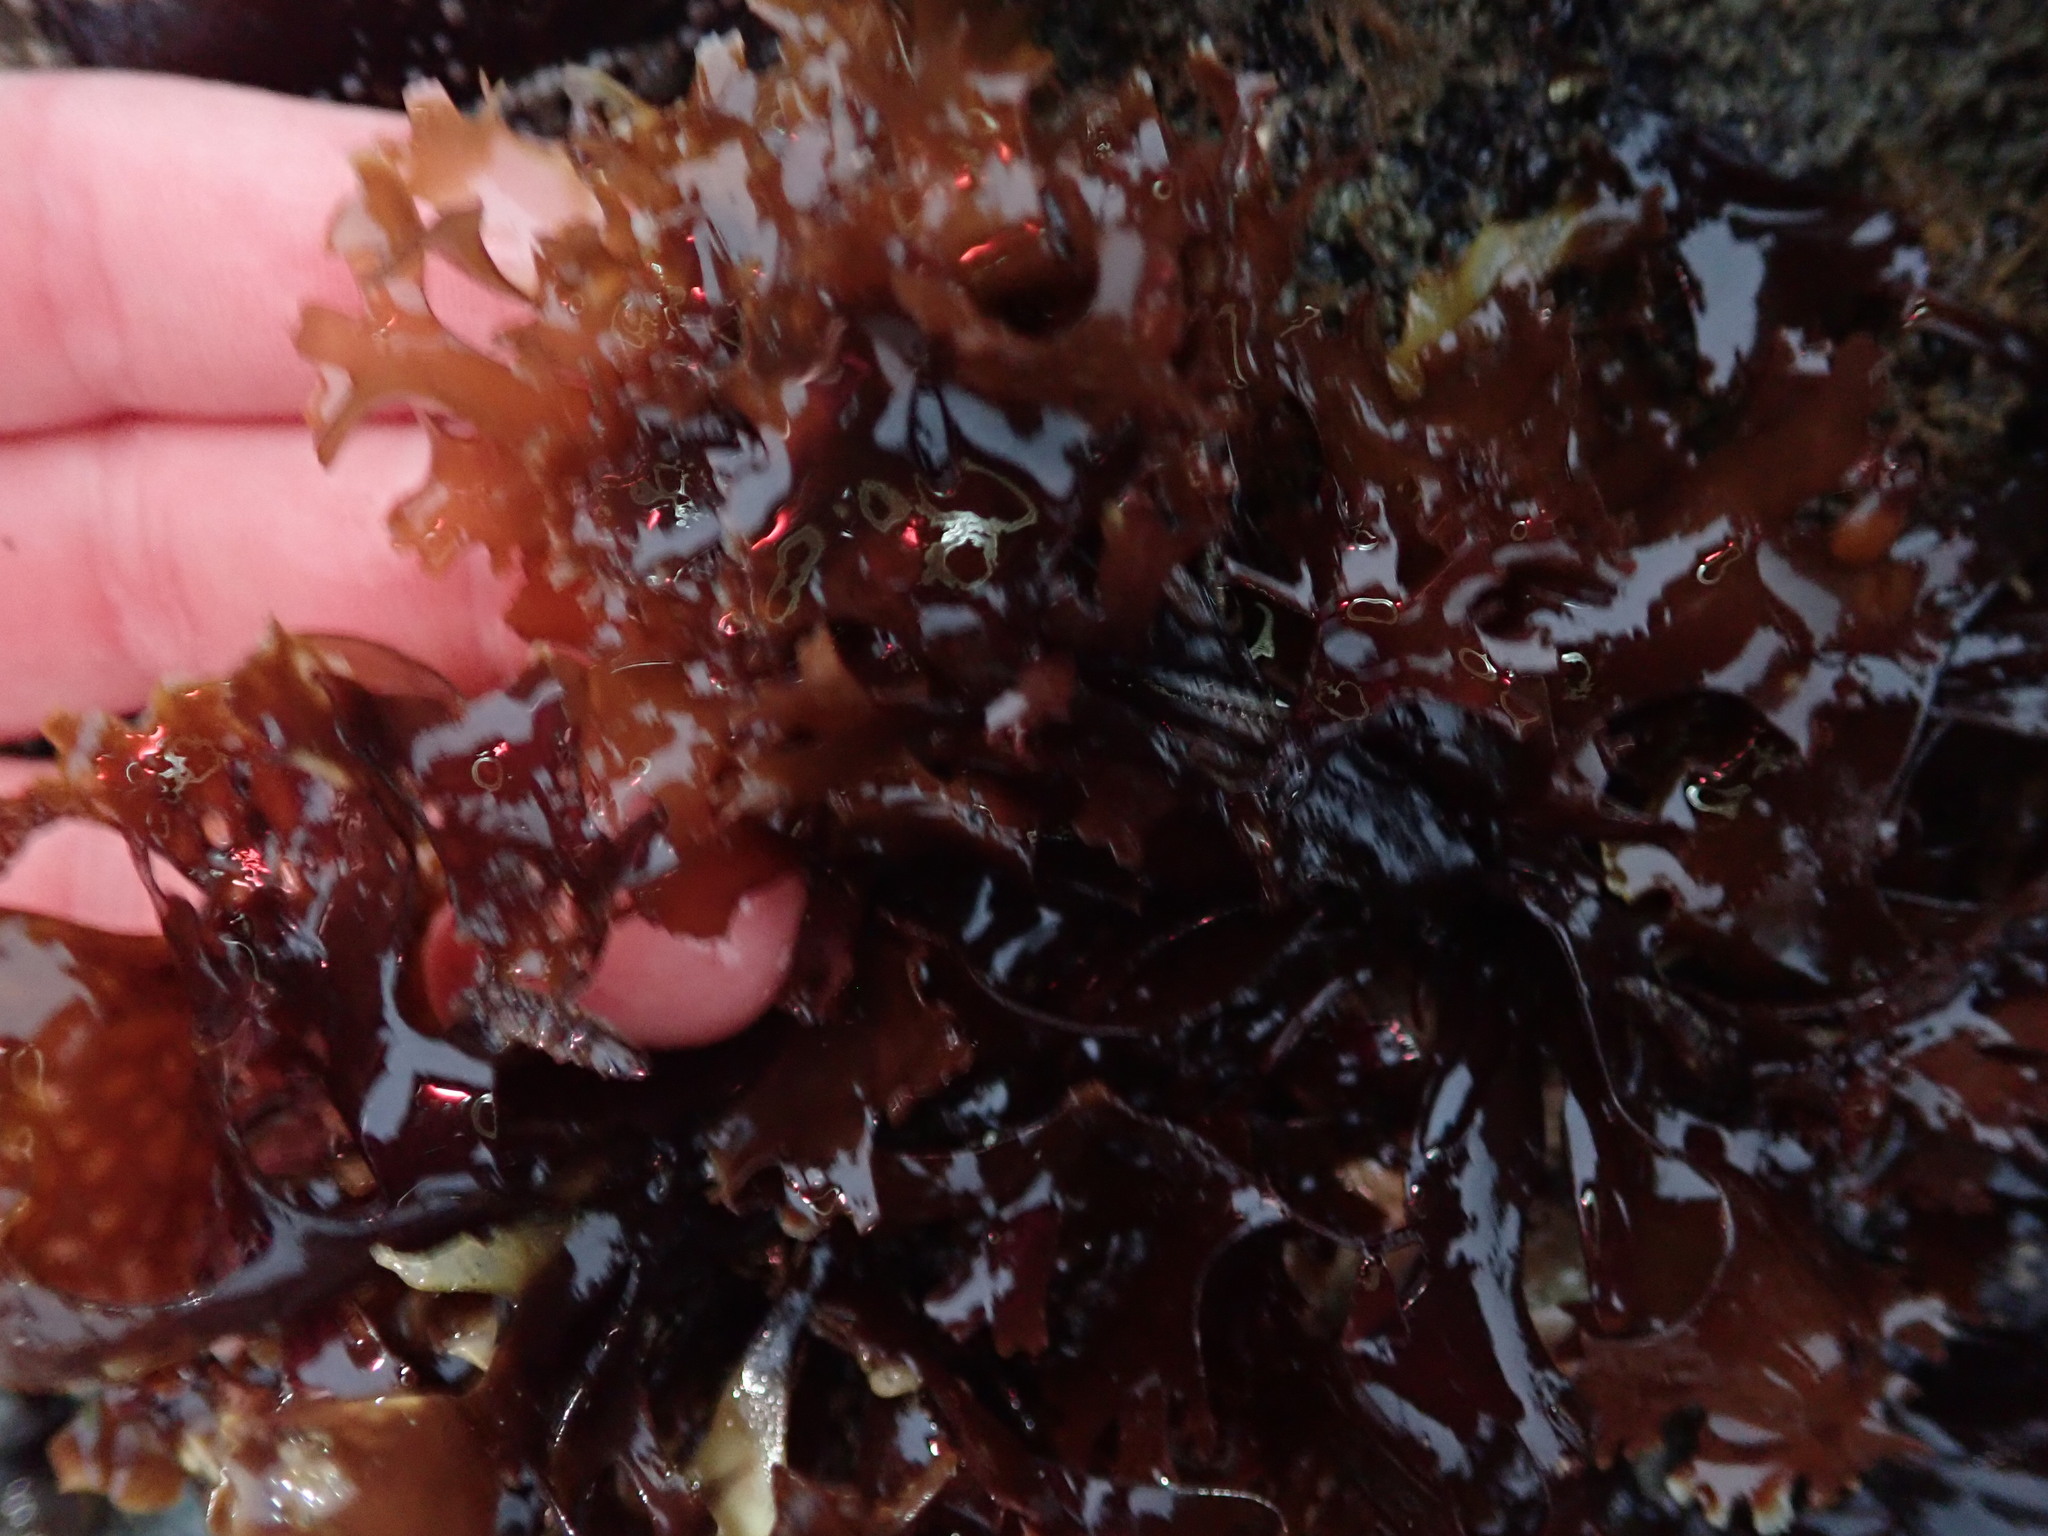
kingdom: Plantae
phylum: Rhodophyta
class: Florideophyceae
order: Gigartinales
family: Gigartinaceae
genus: Chondrus
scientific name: Chondrus crispus
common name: Carrageen
